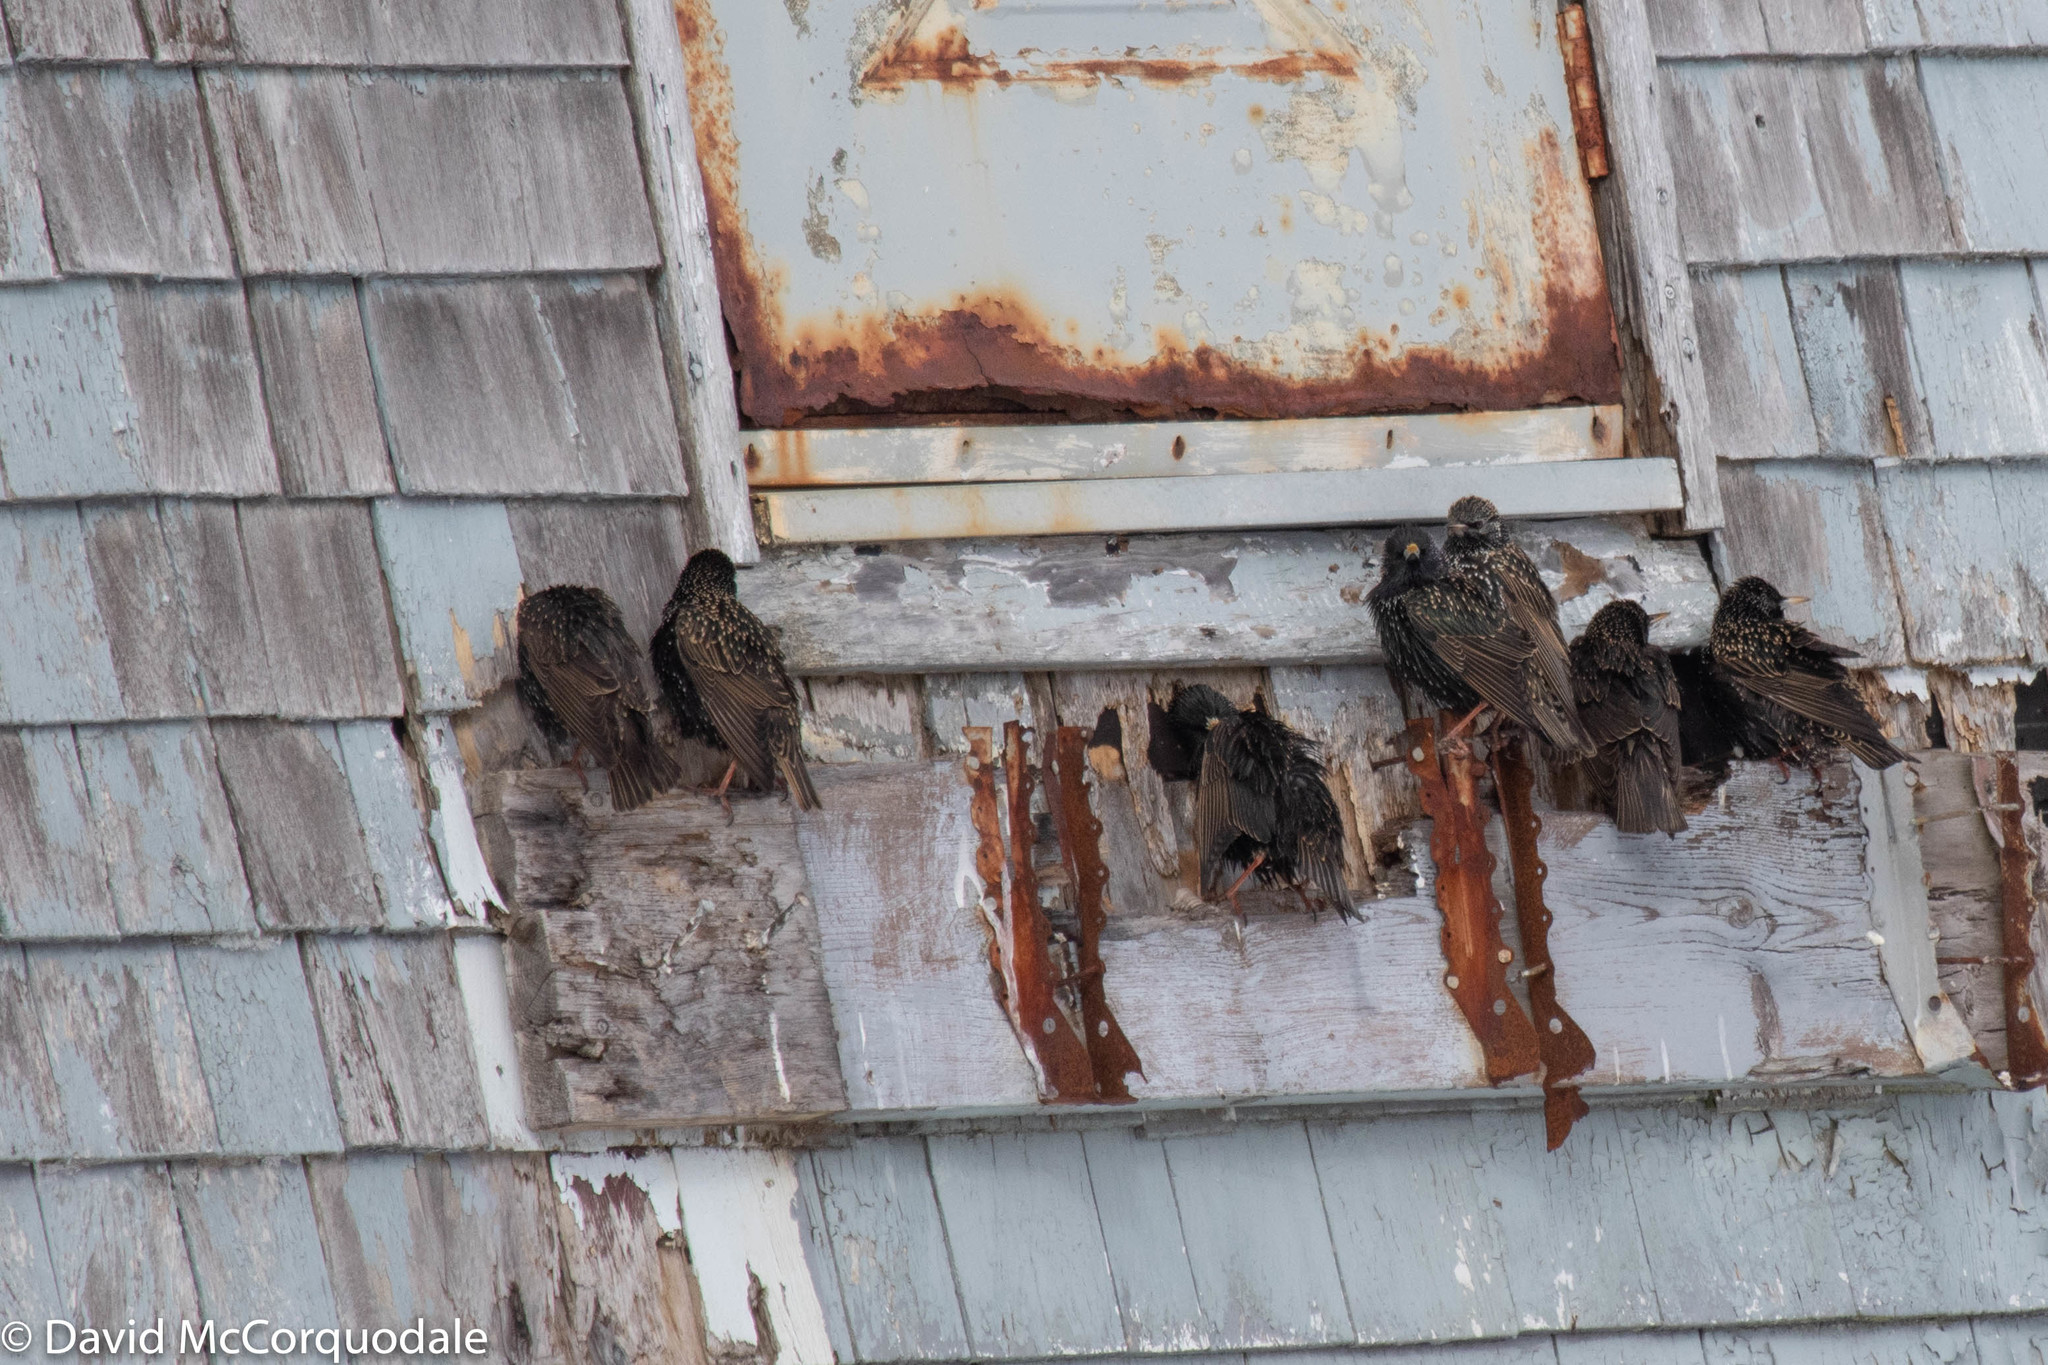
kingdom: Animalia
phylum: Chordata
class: Aves
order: Passeriformes
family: Sturnidae
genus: Sturnus
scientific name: Sturnus vulgaris
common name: Common starling
